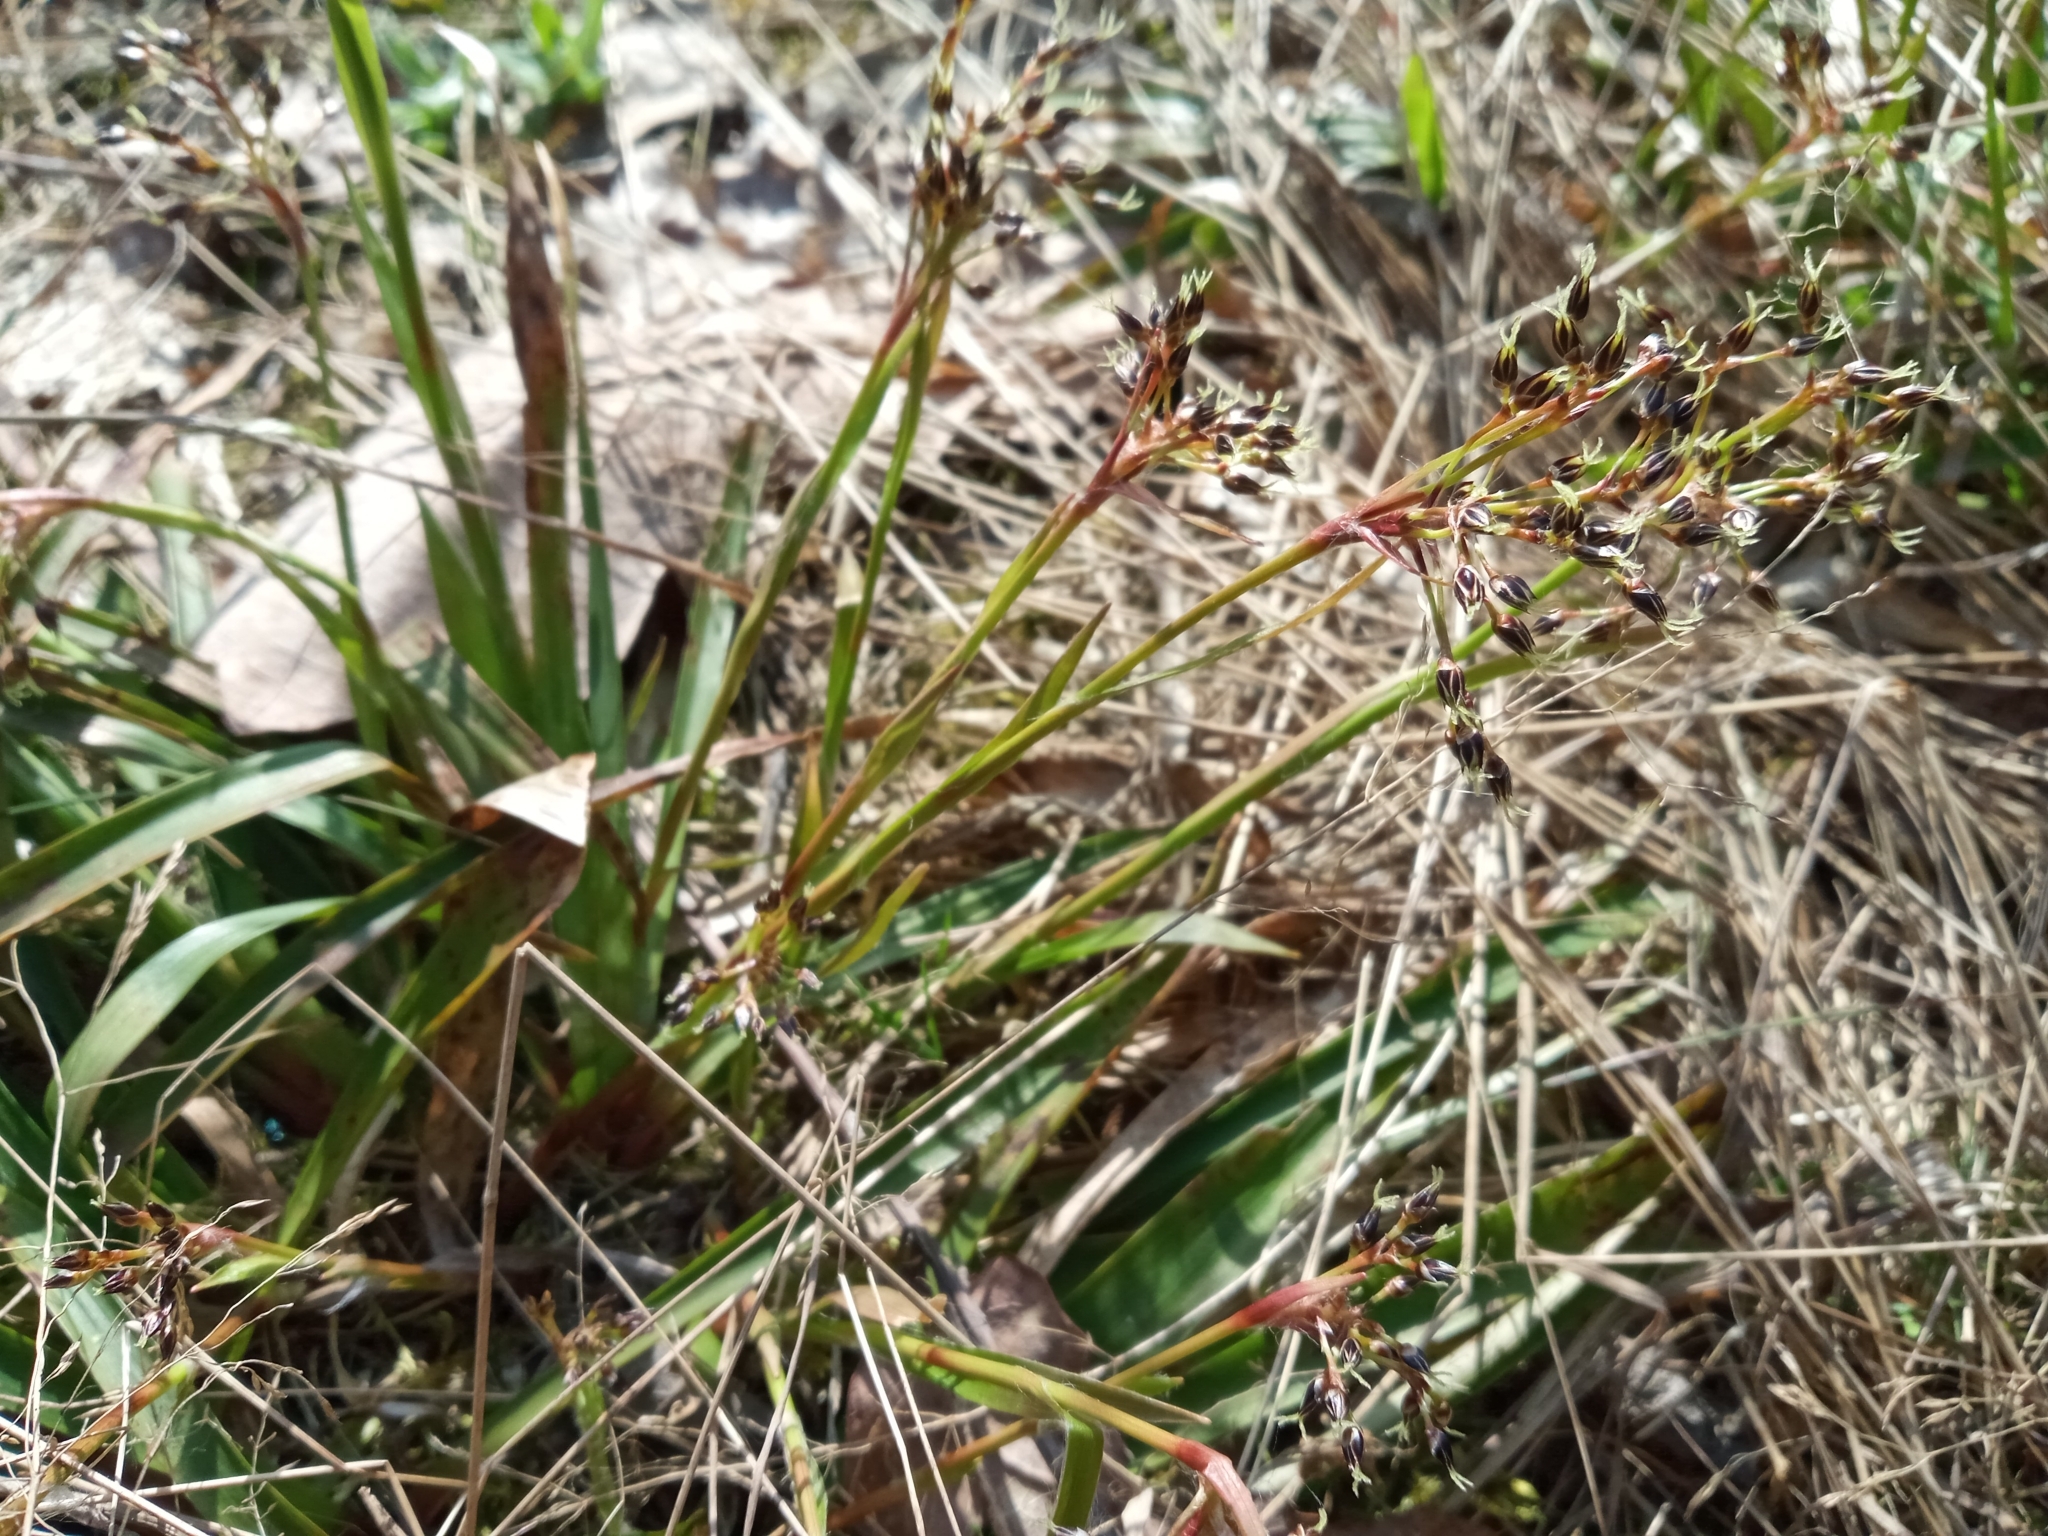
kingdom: Plantae
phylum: Tracheophyta
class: Liliopsida
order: Poales
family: Juncaceae
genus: Luzula
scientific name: Luzula pilosa
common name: Hairy wood-rush
